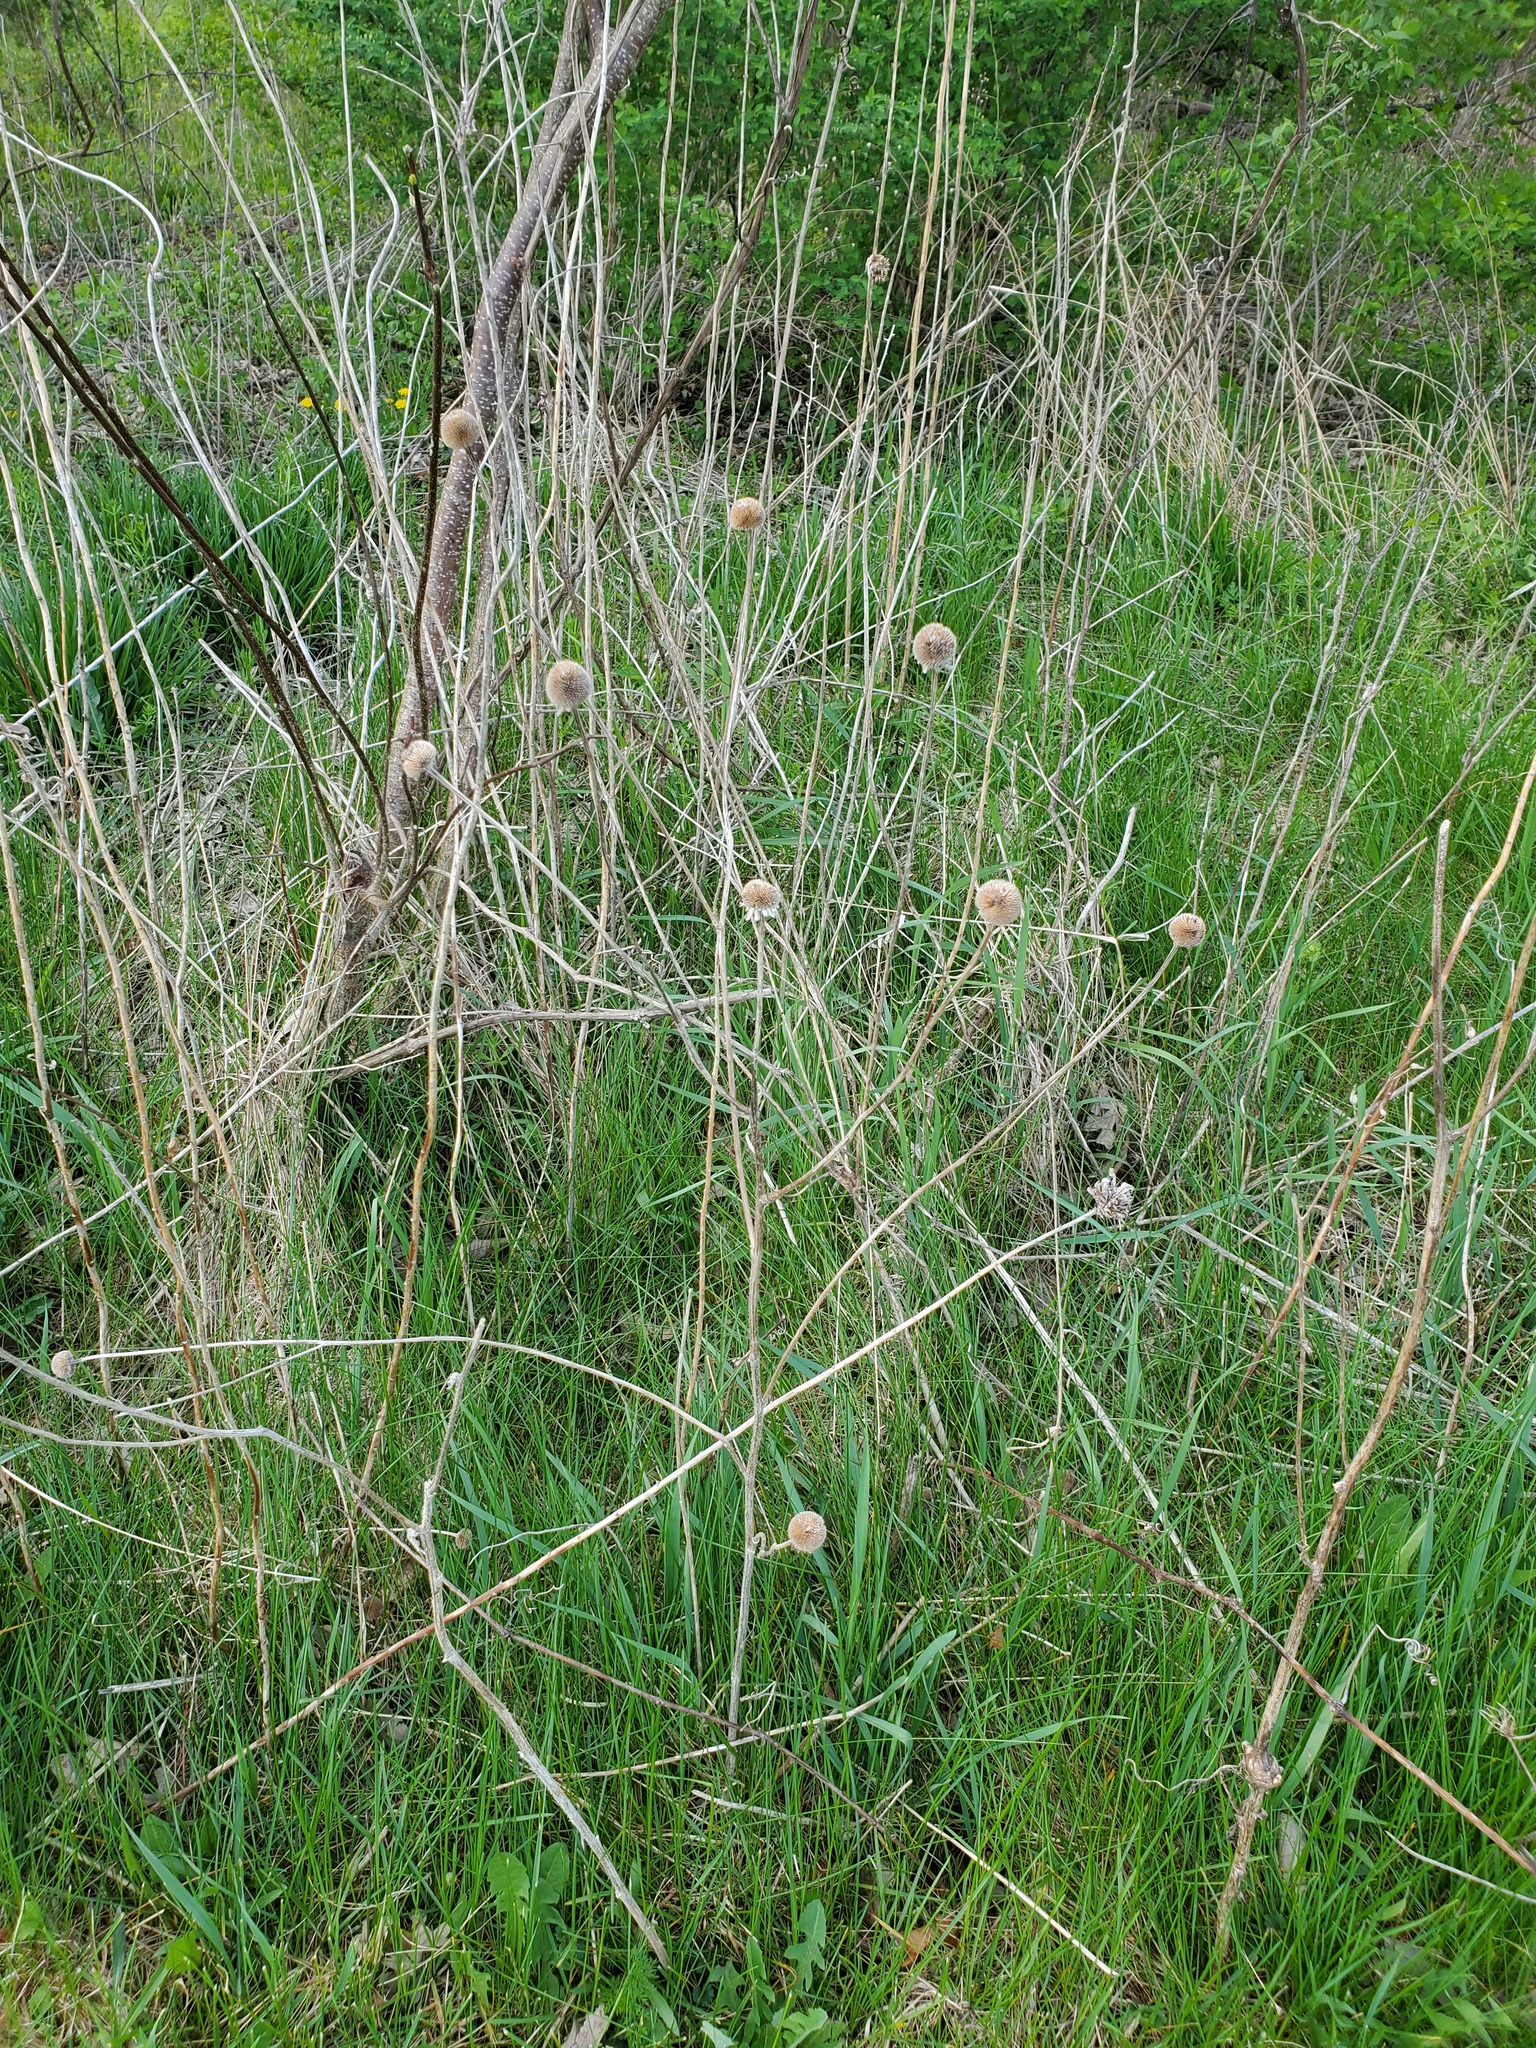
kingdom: Plantae
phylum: Tracheophyta
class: Magnoliopsida
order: Asterales
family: Asteraceae
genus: Rudbeckia
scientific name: Rudbeckia hirta
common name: Black-eyed-susan
